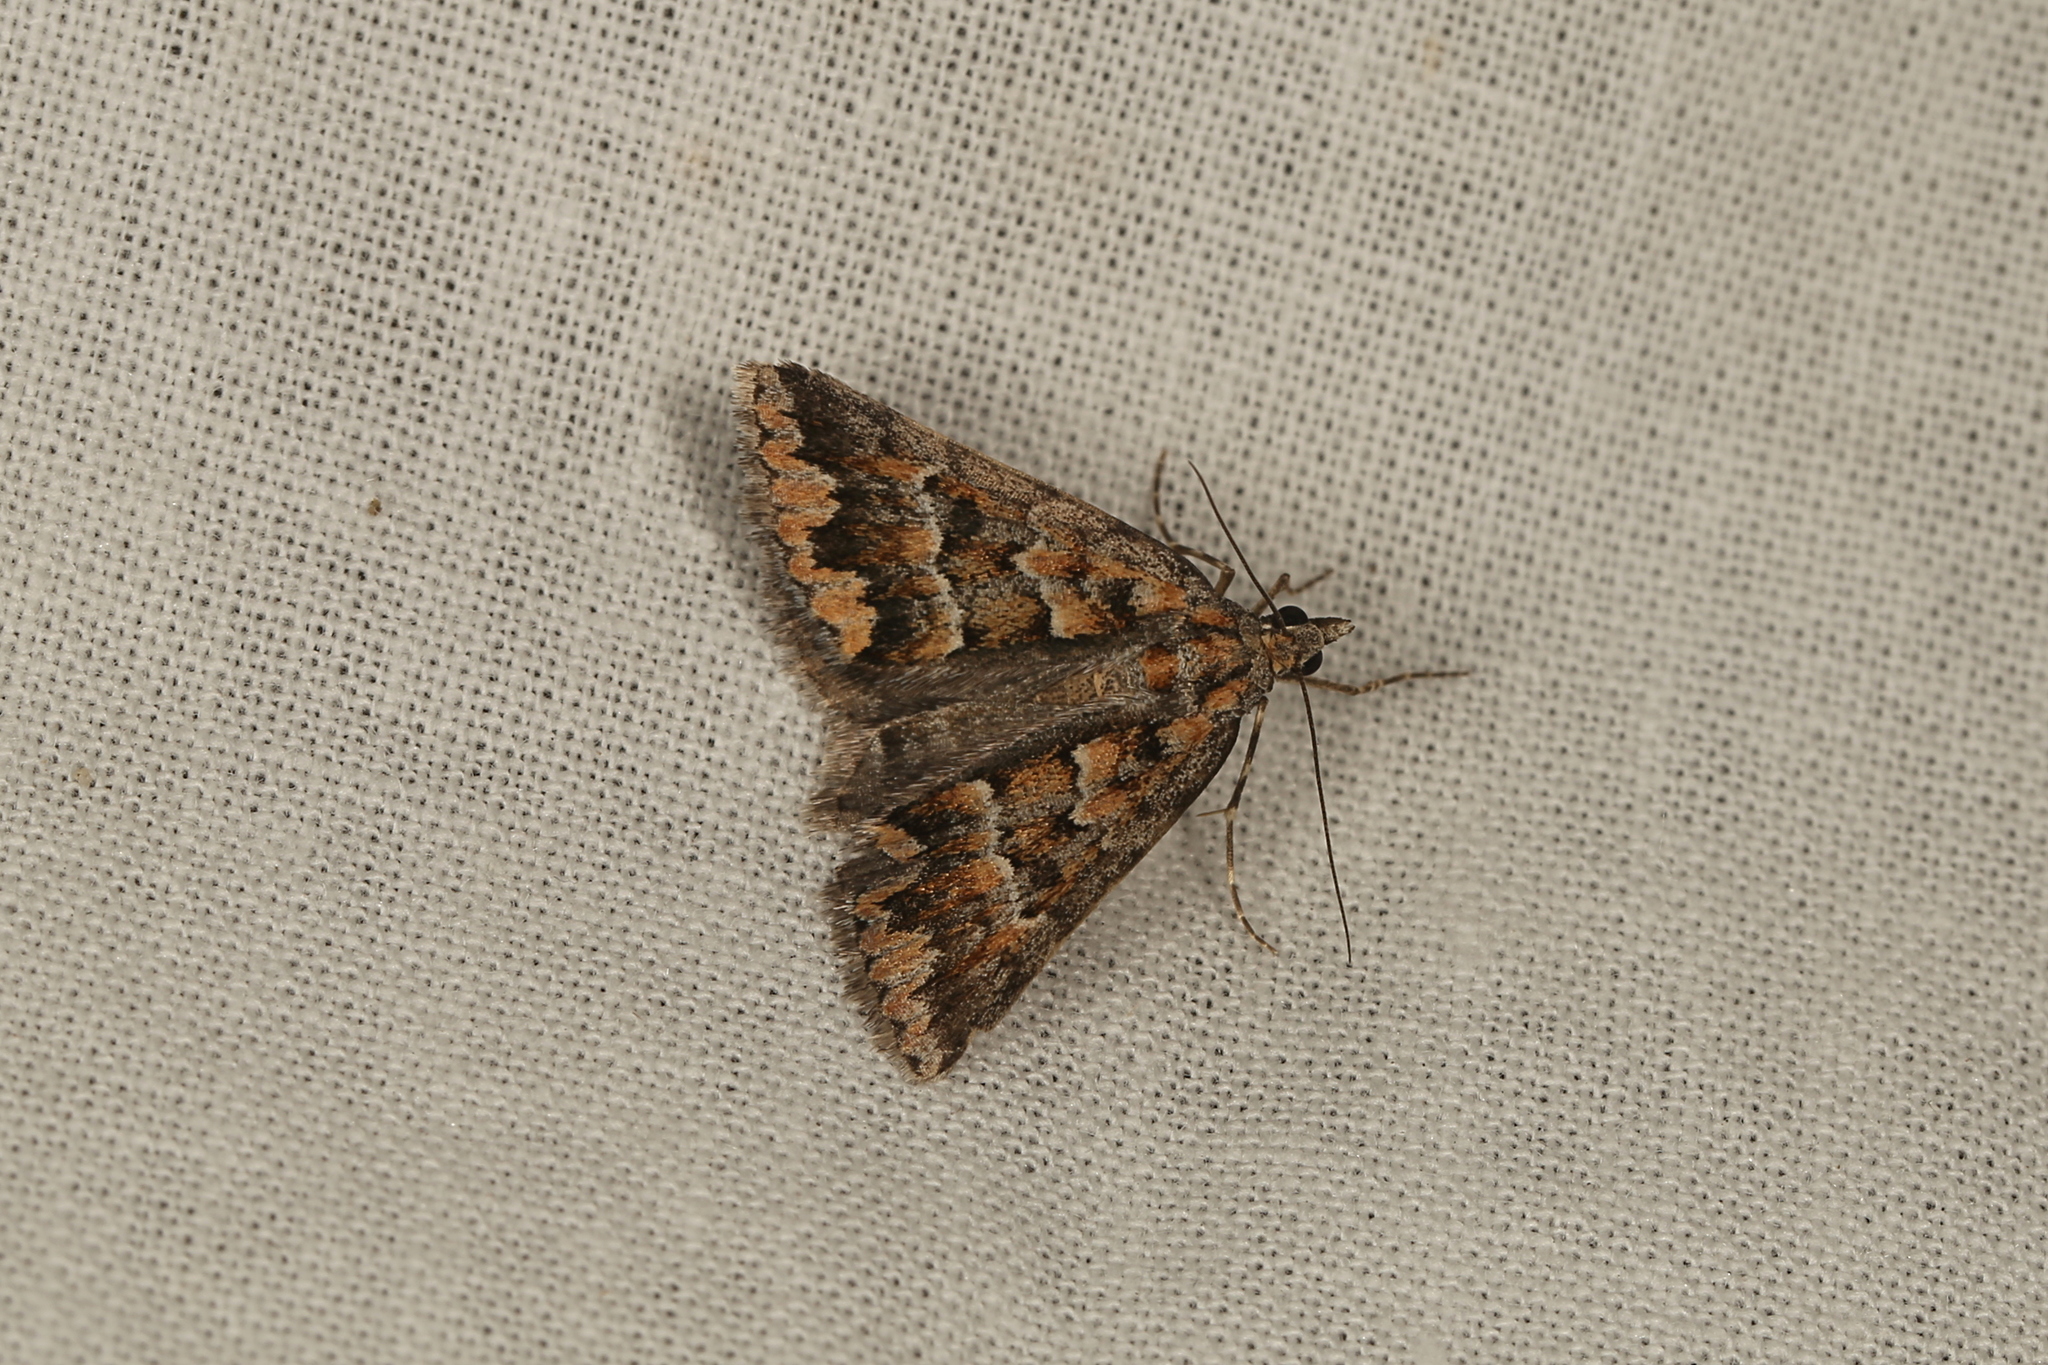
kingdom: Animalia
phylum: Arthropoda
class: Insecta
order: Lepidoptera
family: Geometridae
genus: Dichromodes
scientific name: Dichromodes fulvida
